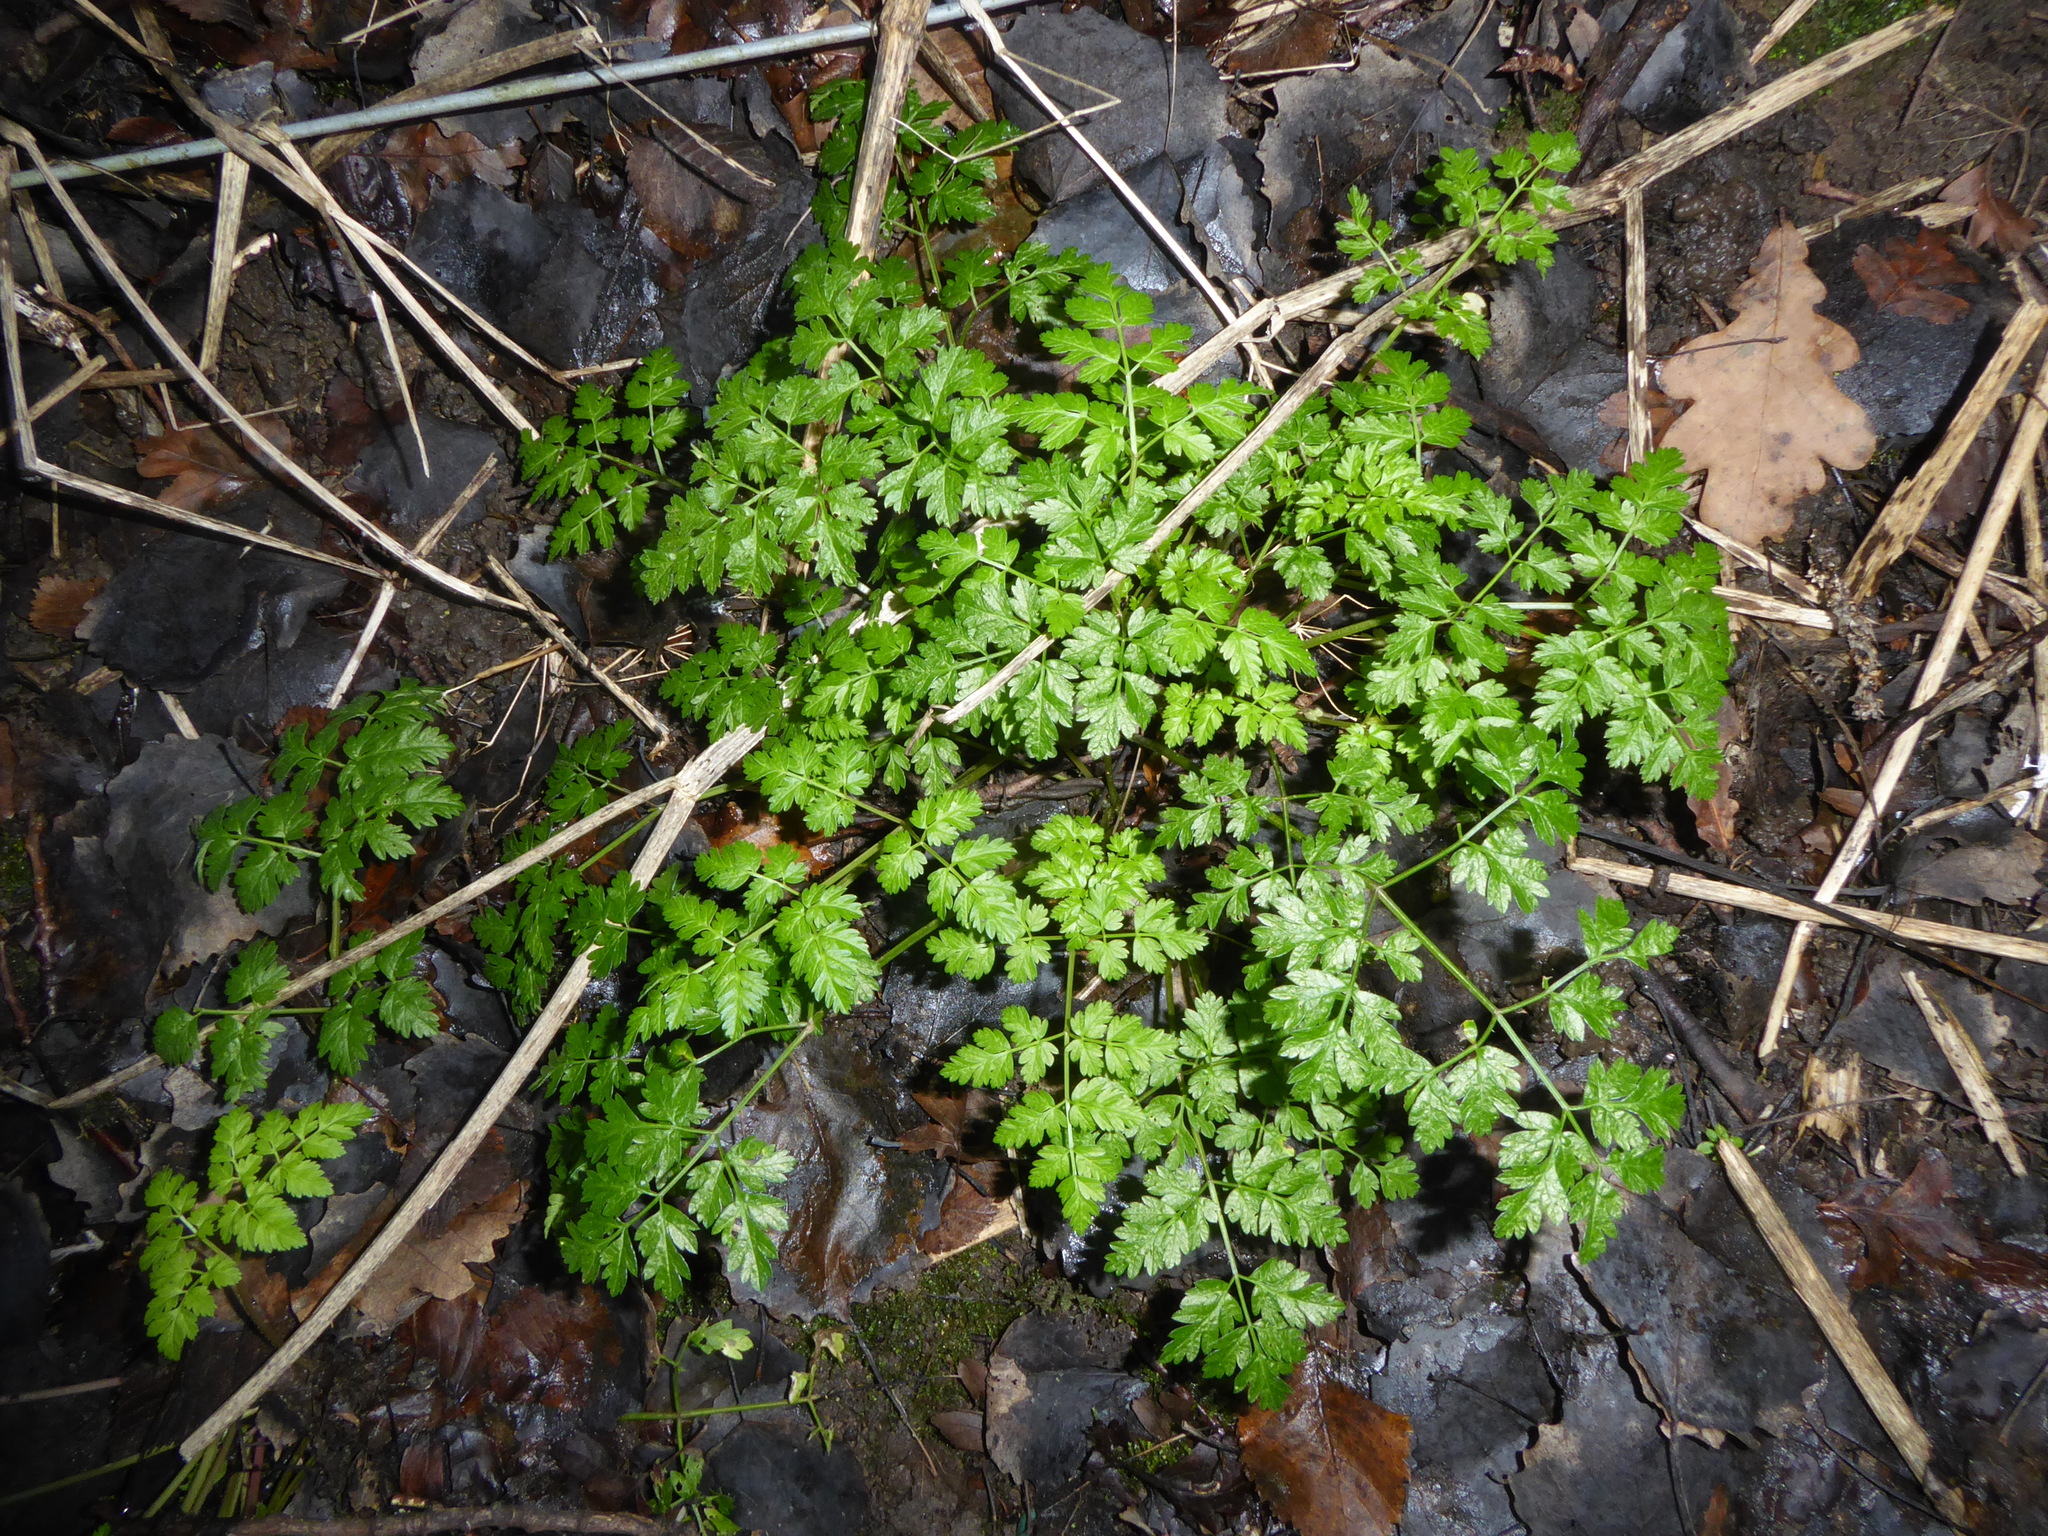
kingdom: Plantae
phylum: Tracheophyta
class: Magnoliopsida
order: Apiales
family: Apiaceae
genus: Anthriscus
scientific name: Anthriscus sylvestris
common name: Cow parsley
